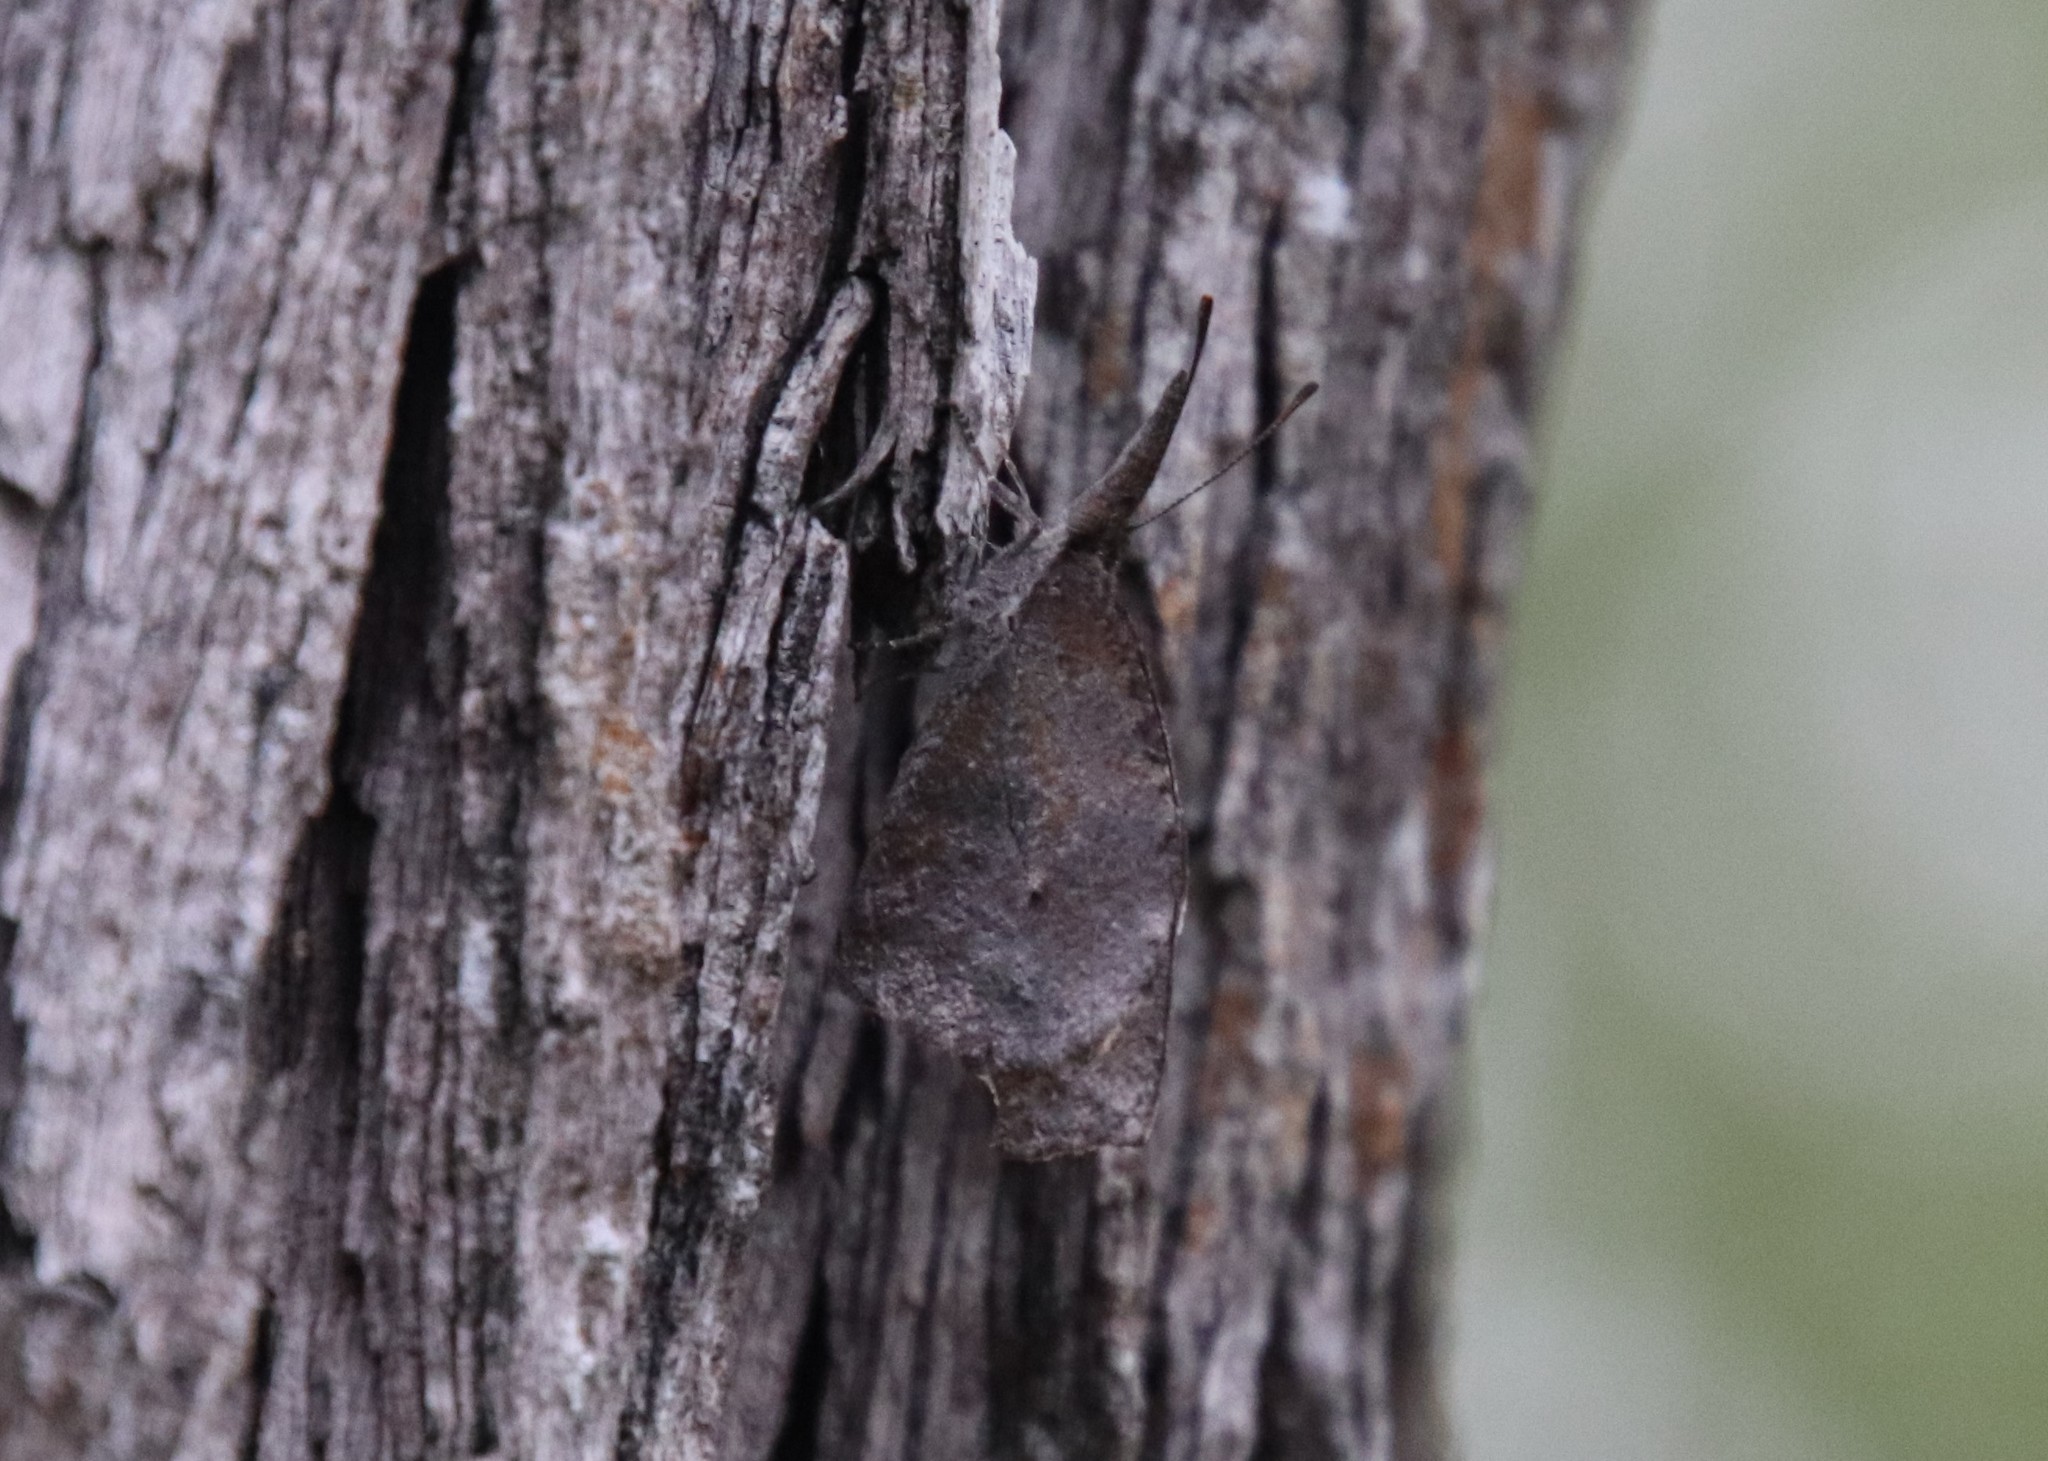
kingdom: Animalia
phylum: Arthropoda
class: Insecta
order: Lepidoptera
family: Nymphalidae
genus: Libytheana
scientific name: Libytheana carinenta
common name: American snout
